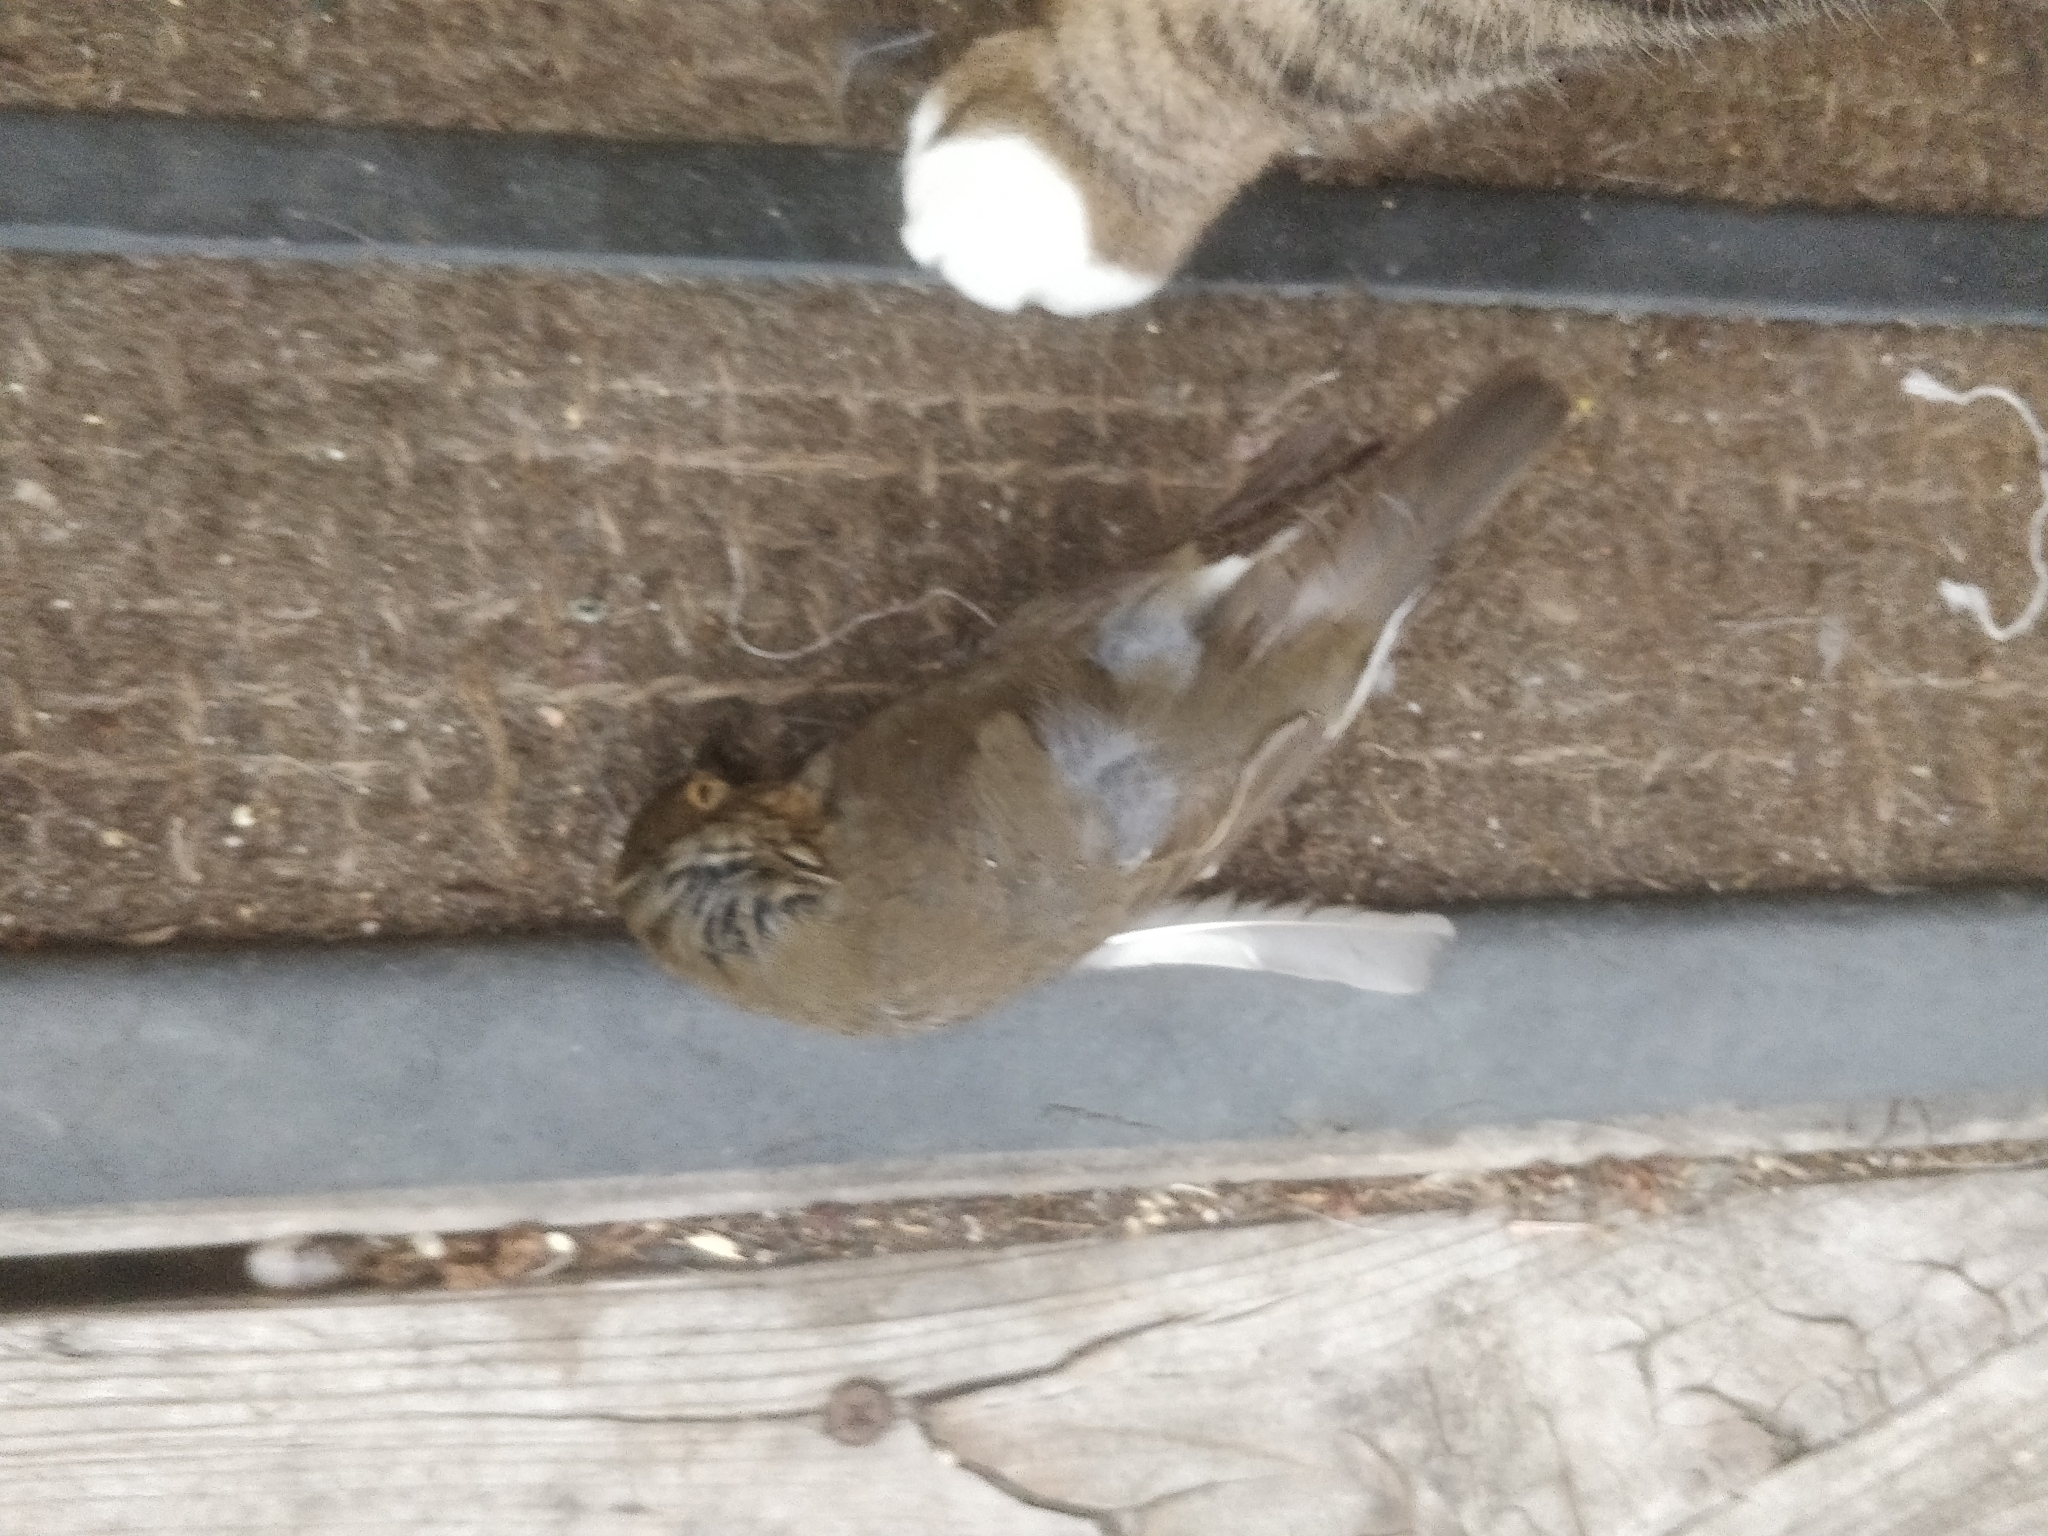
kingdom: Animalia
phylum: Chordata
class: Aves
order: Passeriformes
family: Turdidae
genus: Catharus
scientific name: Catharus ustulatus
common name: Swainson's thrush
